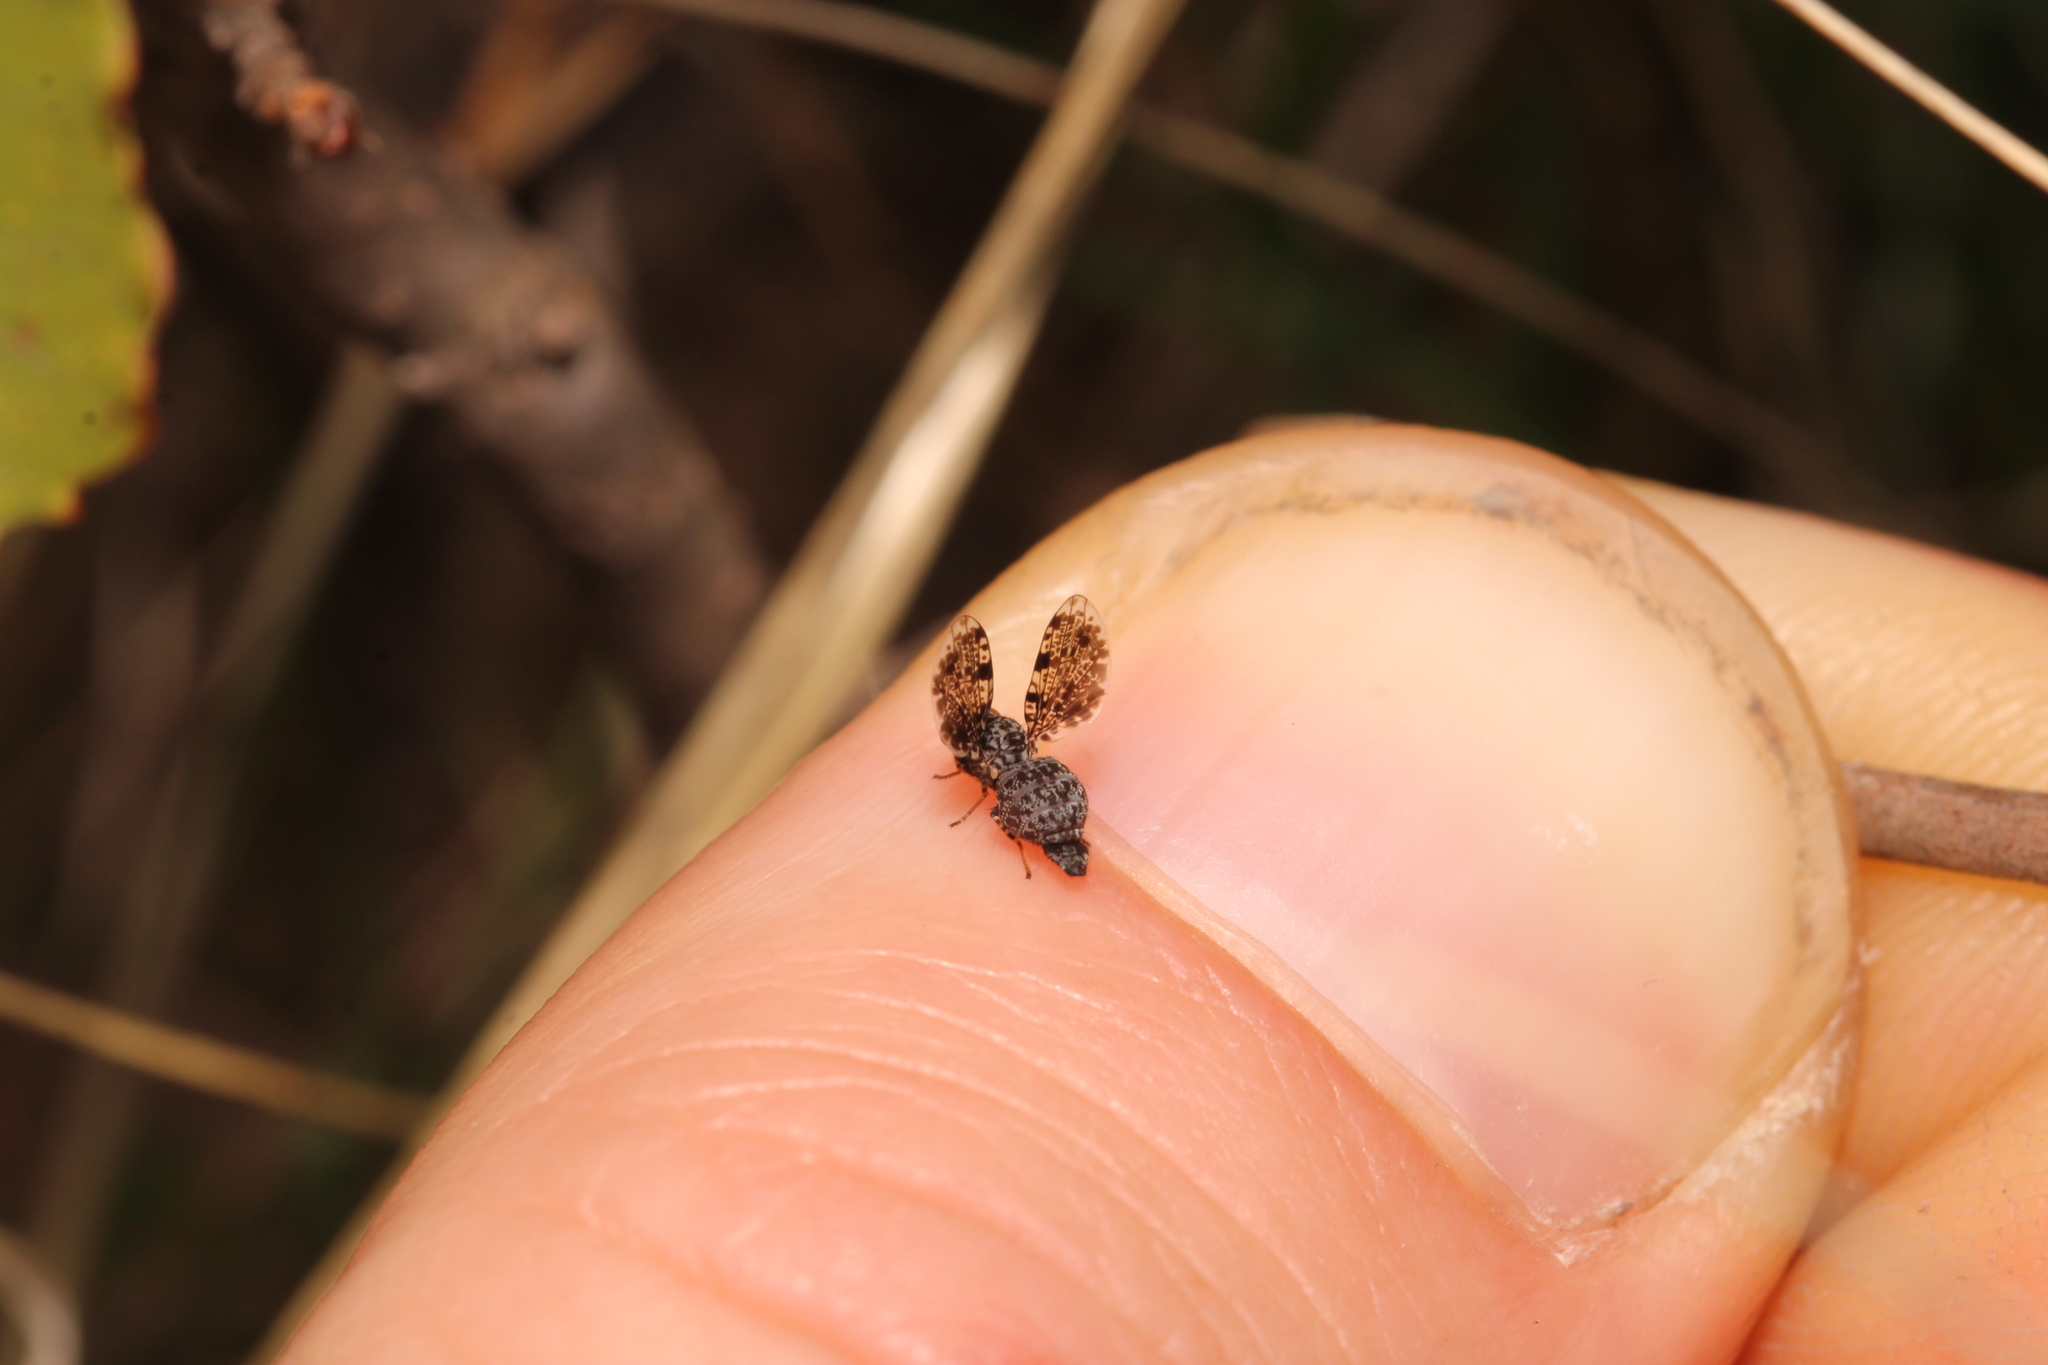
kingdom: Animalia
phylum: Arthropoda
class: Insecta
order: Diptera
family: Ulidiidae
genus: Callopistromyia
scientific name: Callopistromyia annulipes
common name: Peacock fly
